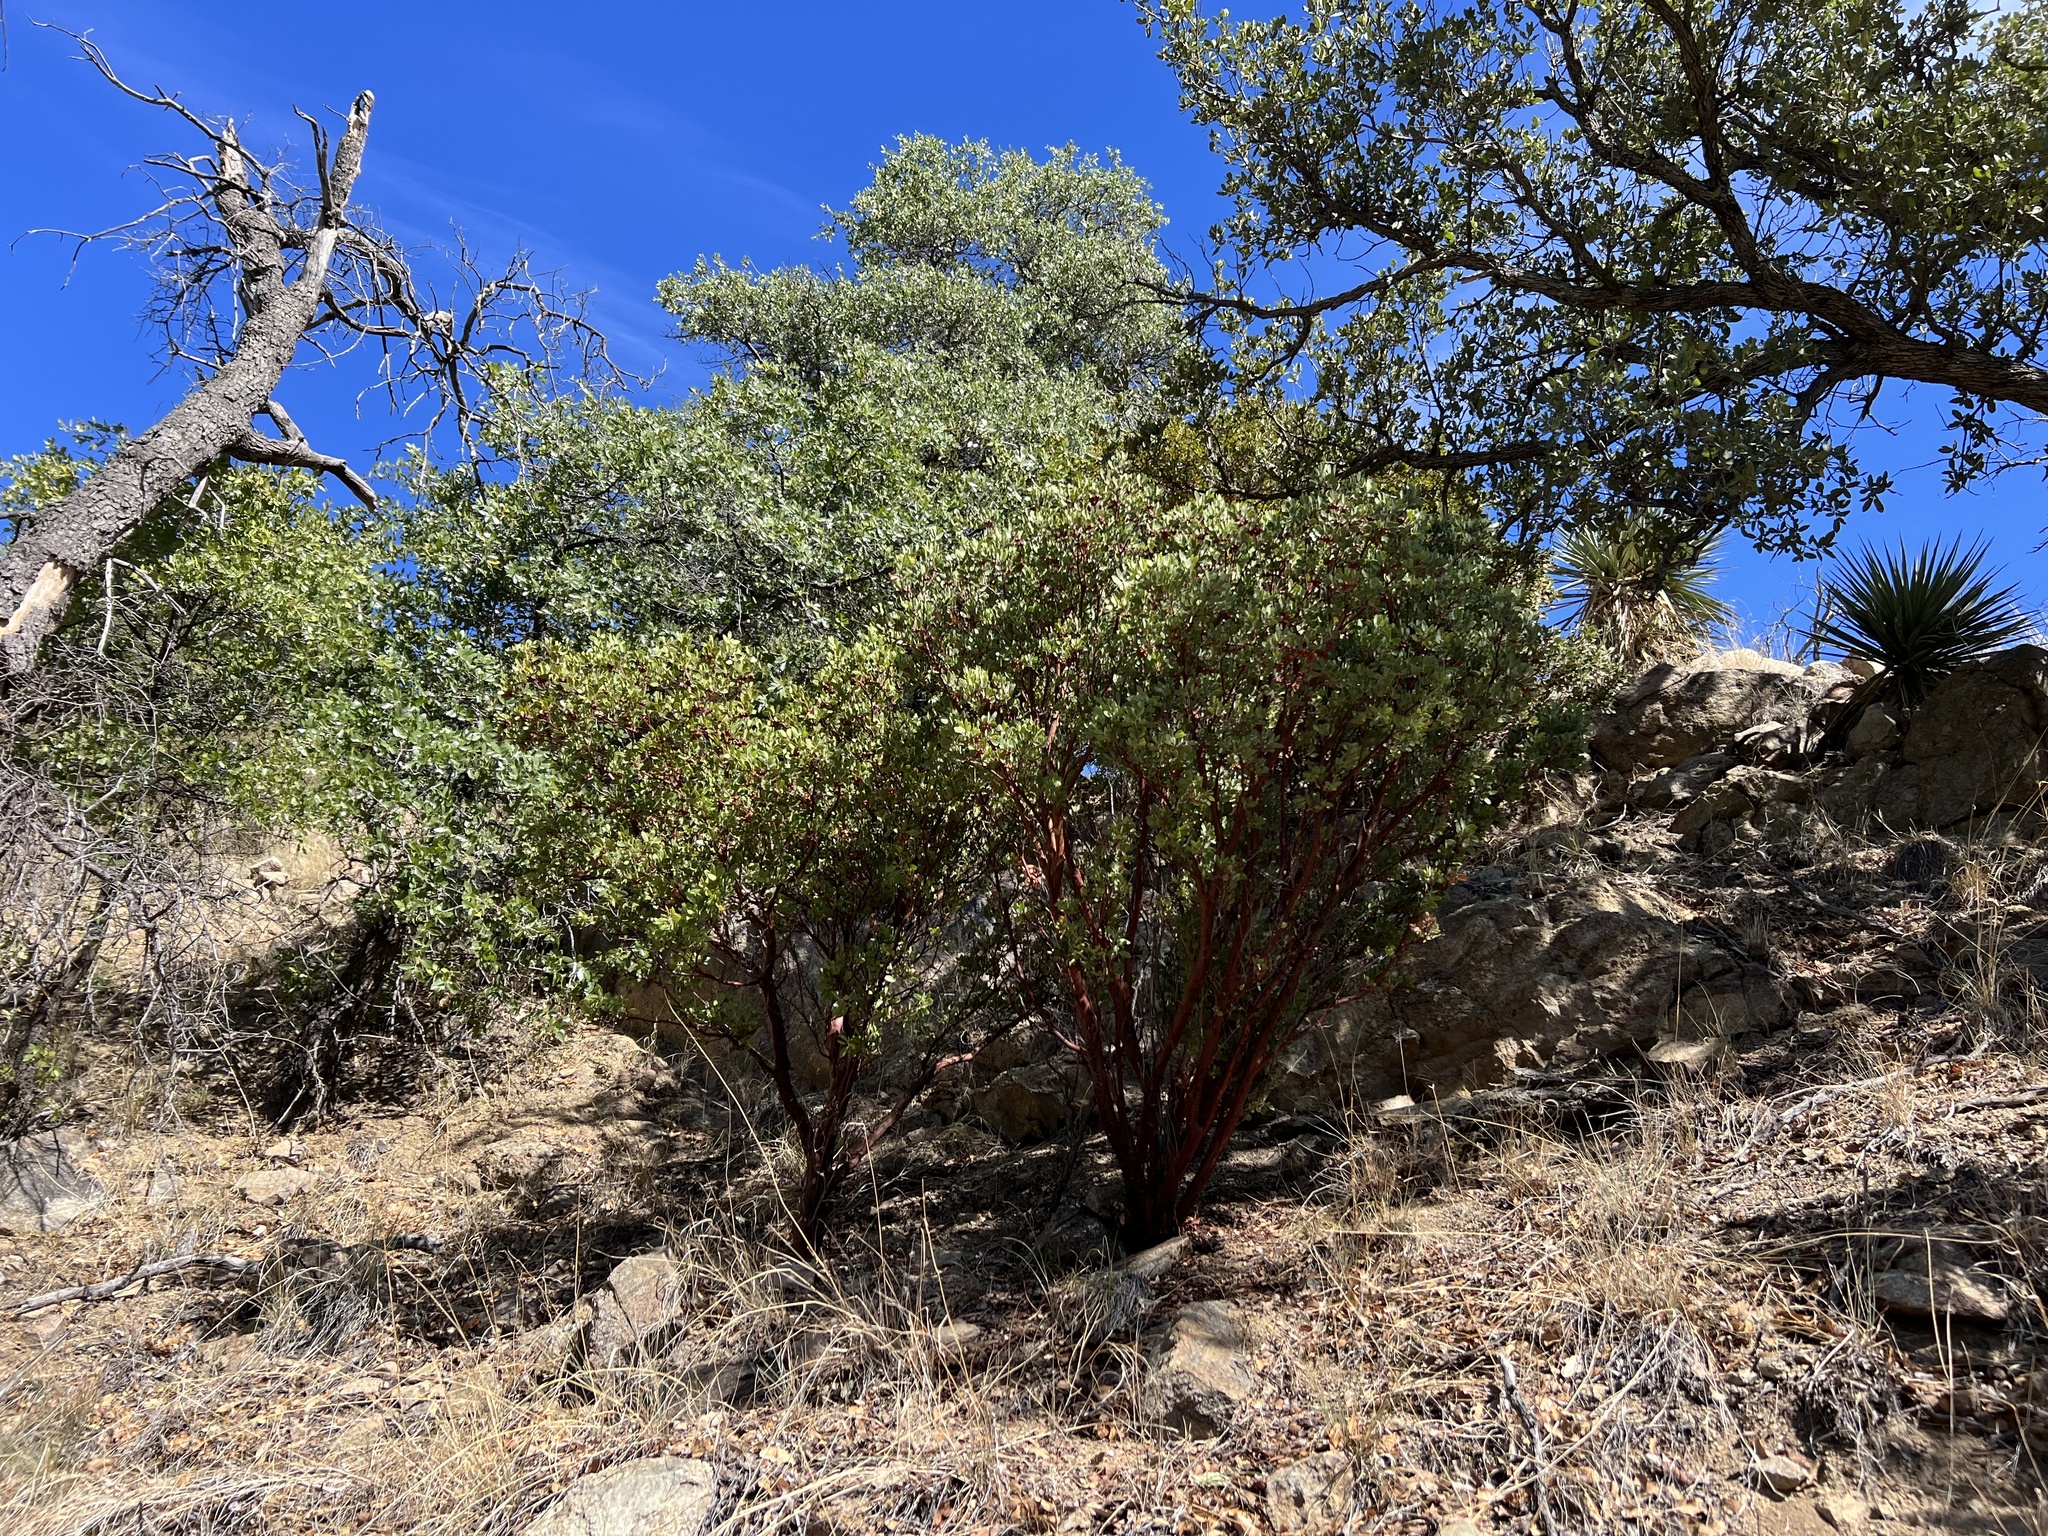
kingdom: Plantae
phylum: Tracheophyta
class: Magnoliopsida
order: Ericales
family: Ericaceae
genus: Arctostaphylos
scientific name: Arctostaphylos pungens
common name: Mexican manzanita
